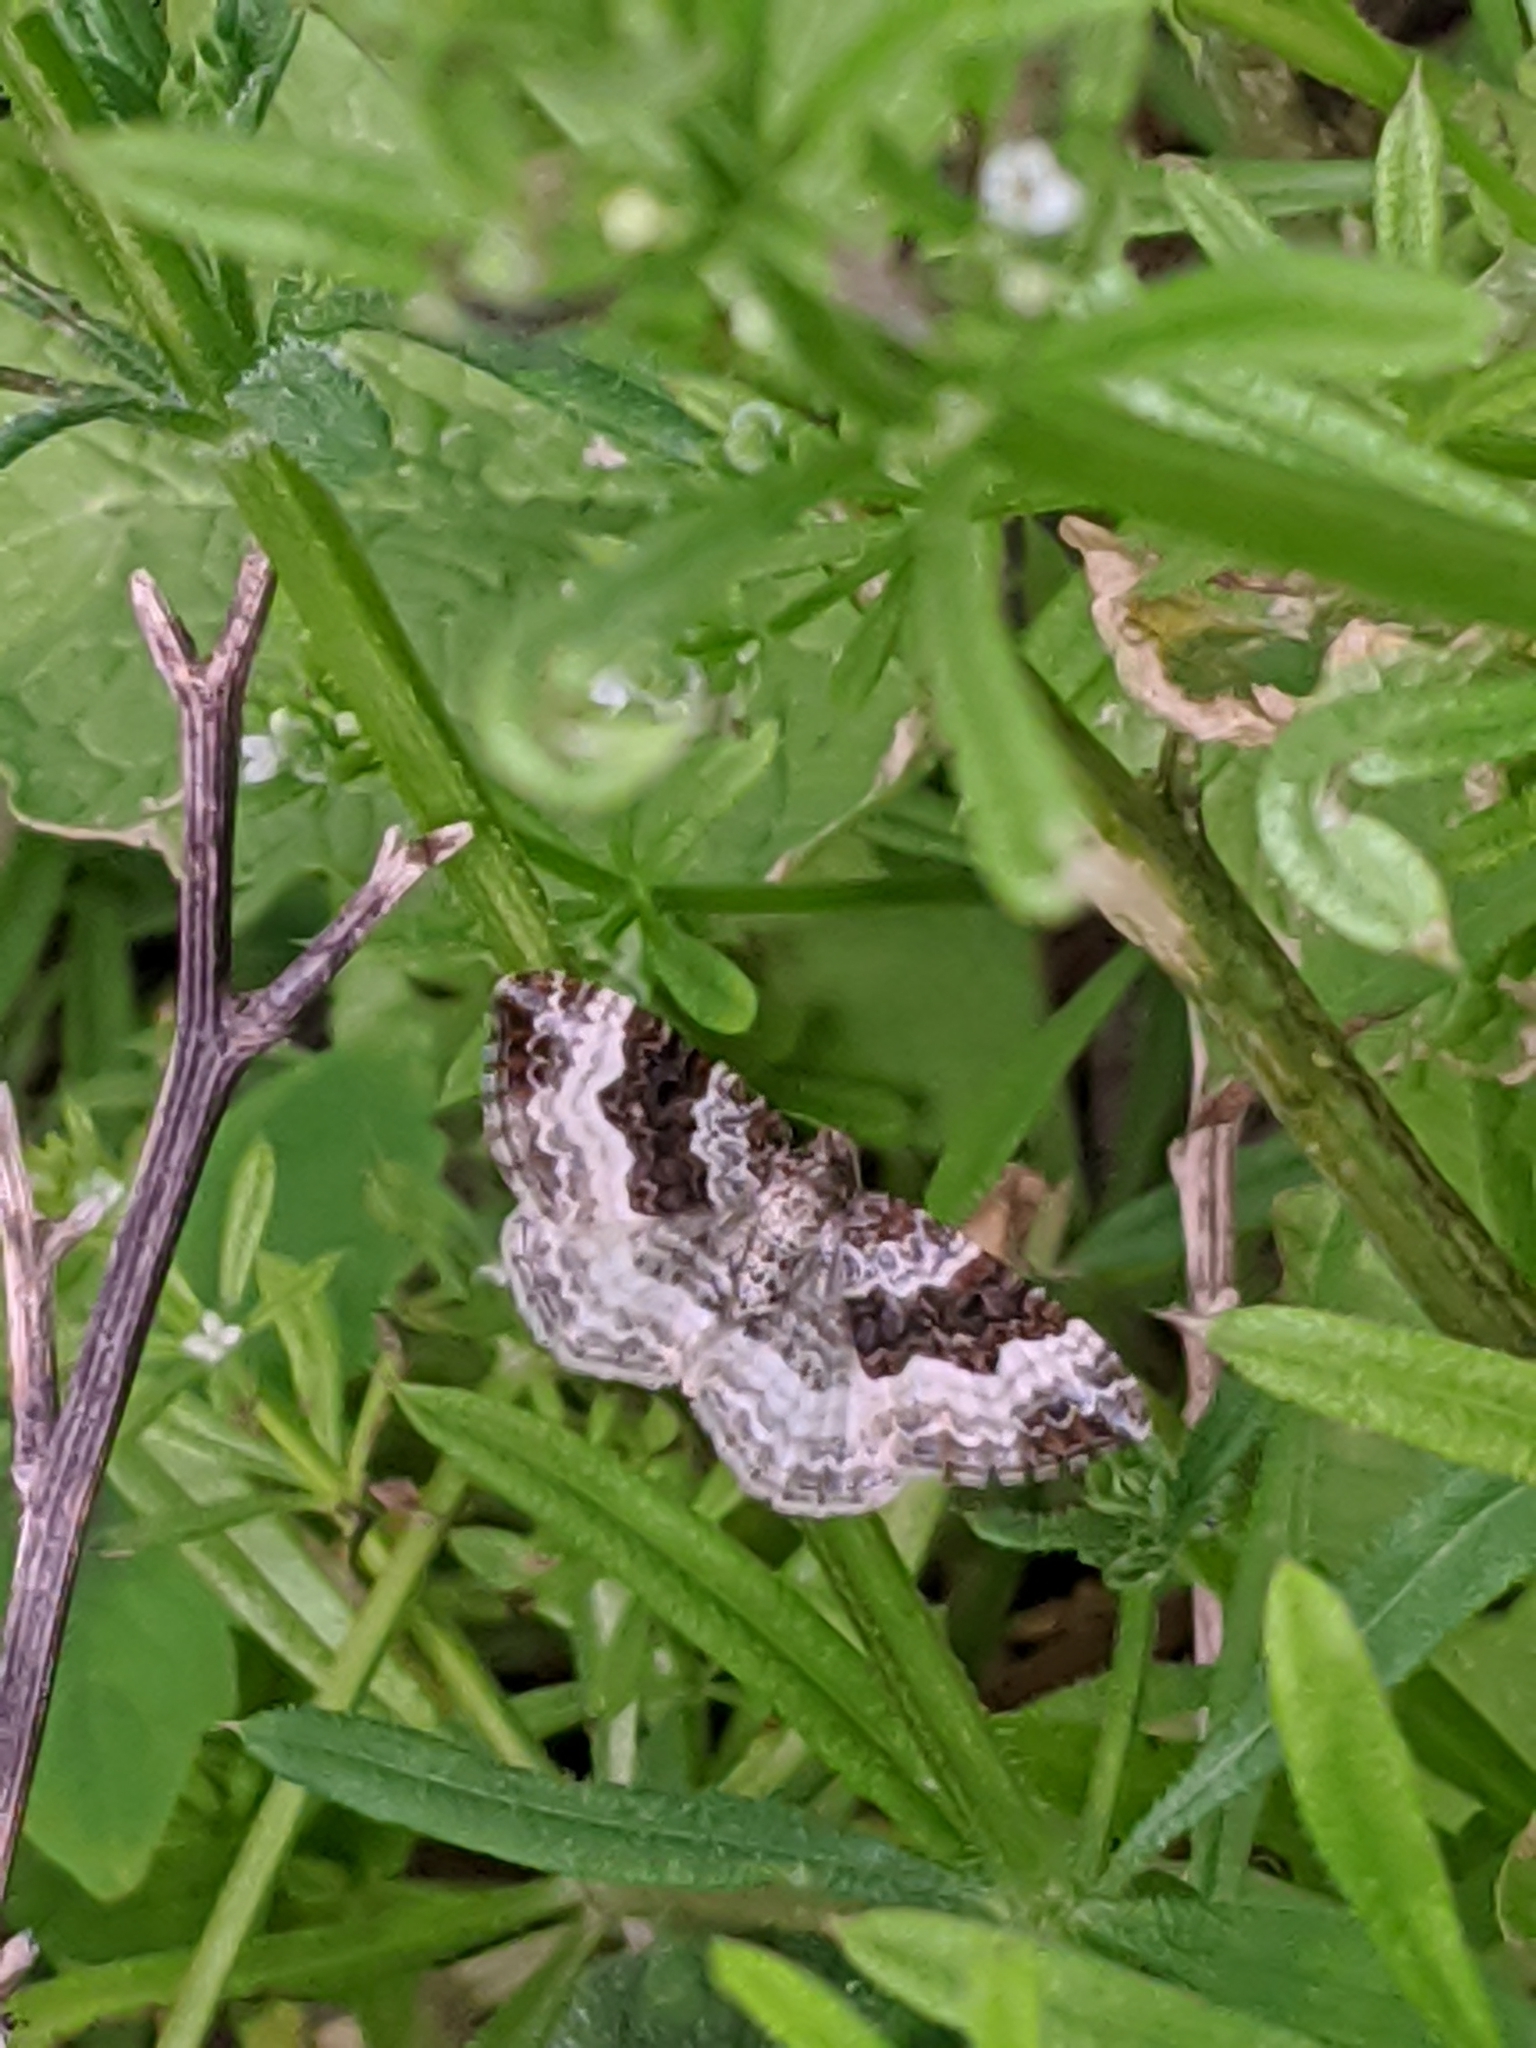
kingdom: Animalia
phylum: Arthropoda
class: Insecta
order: Lepidoptera
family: Geometridae
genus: Epirrhoe
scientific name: Epirrhoe alternata
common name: Common carpet
